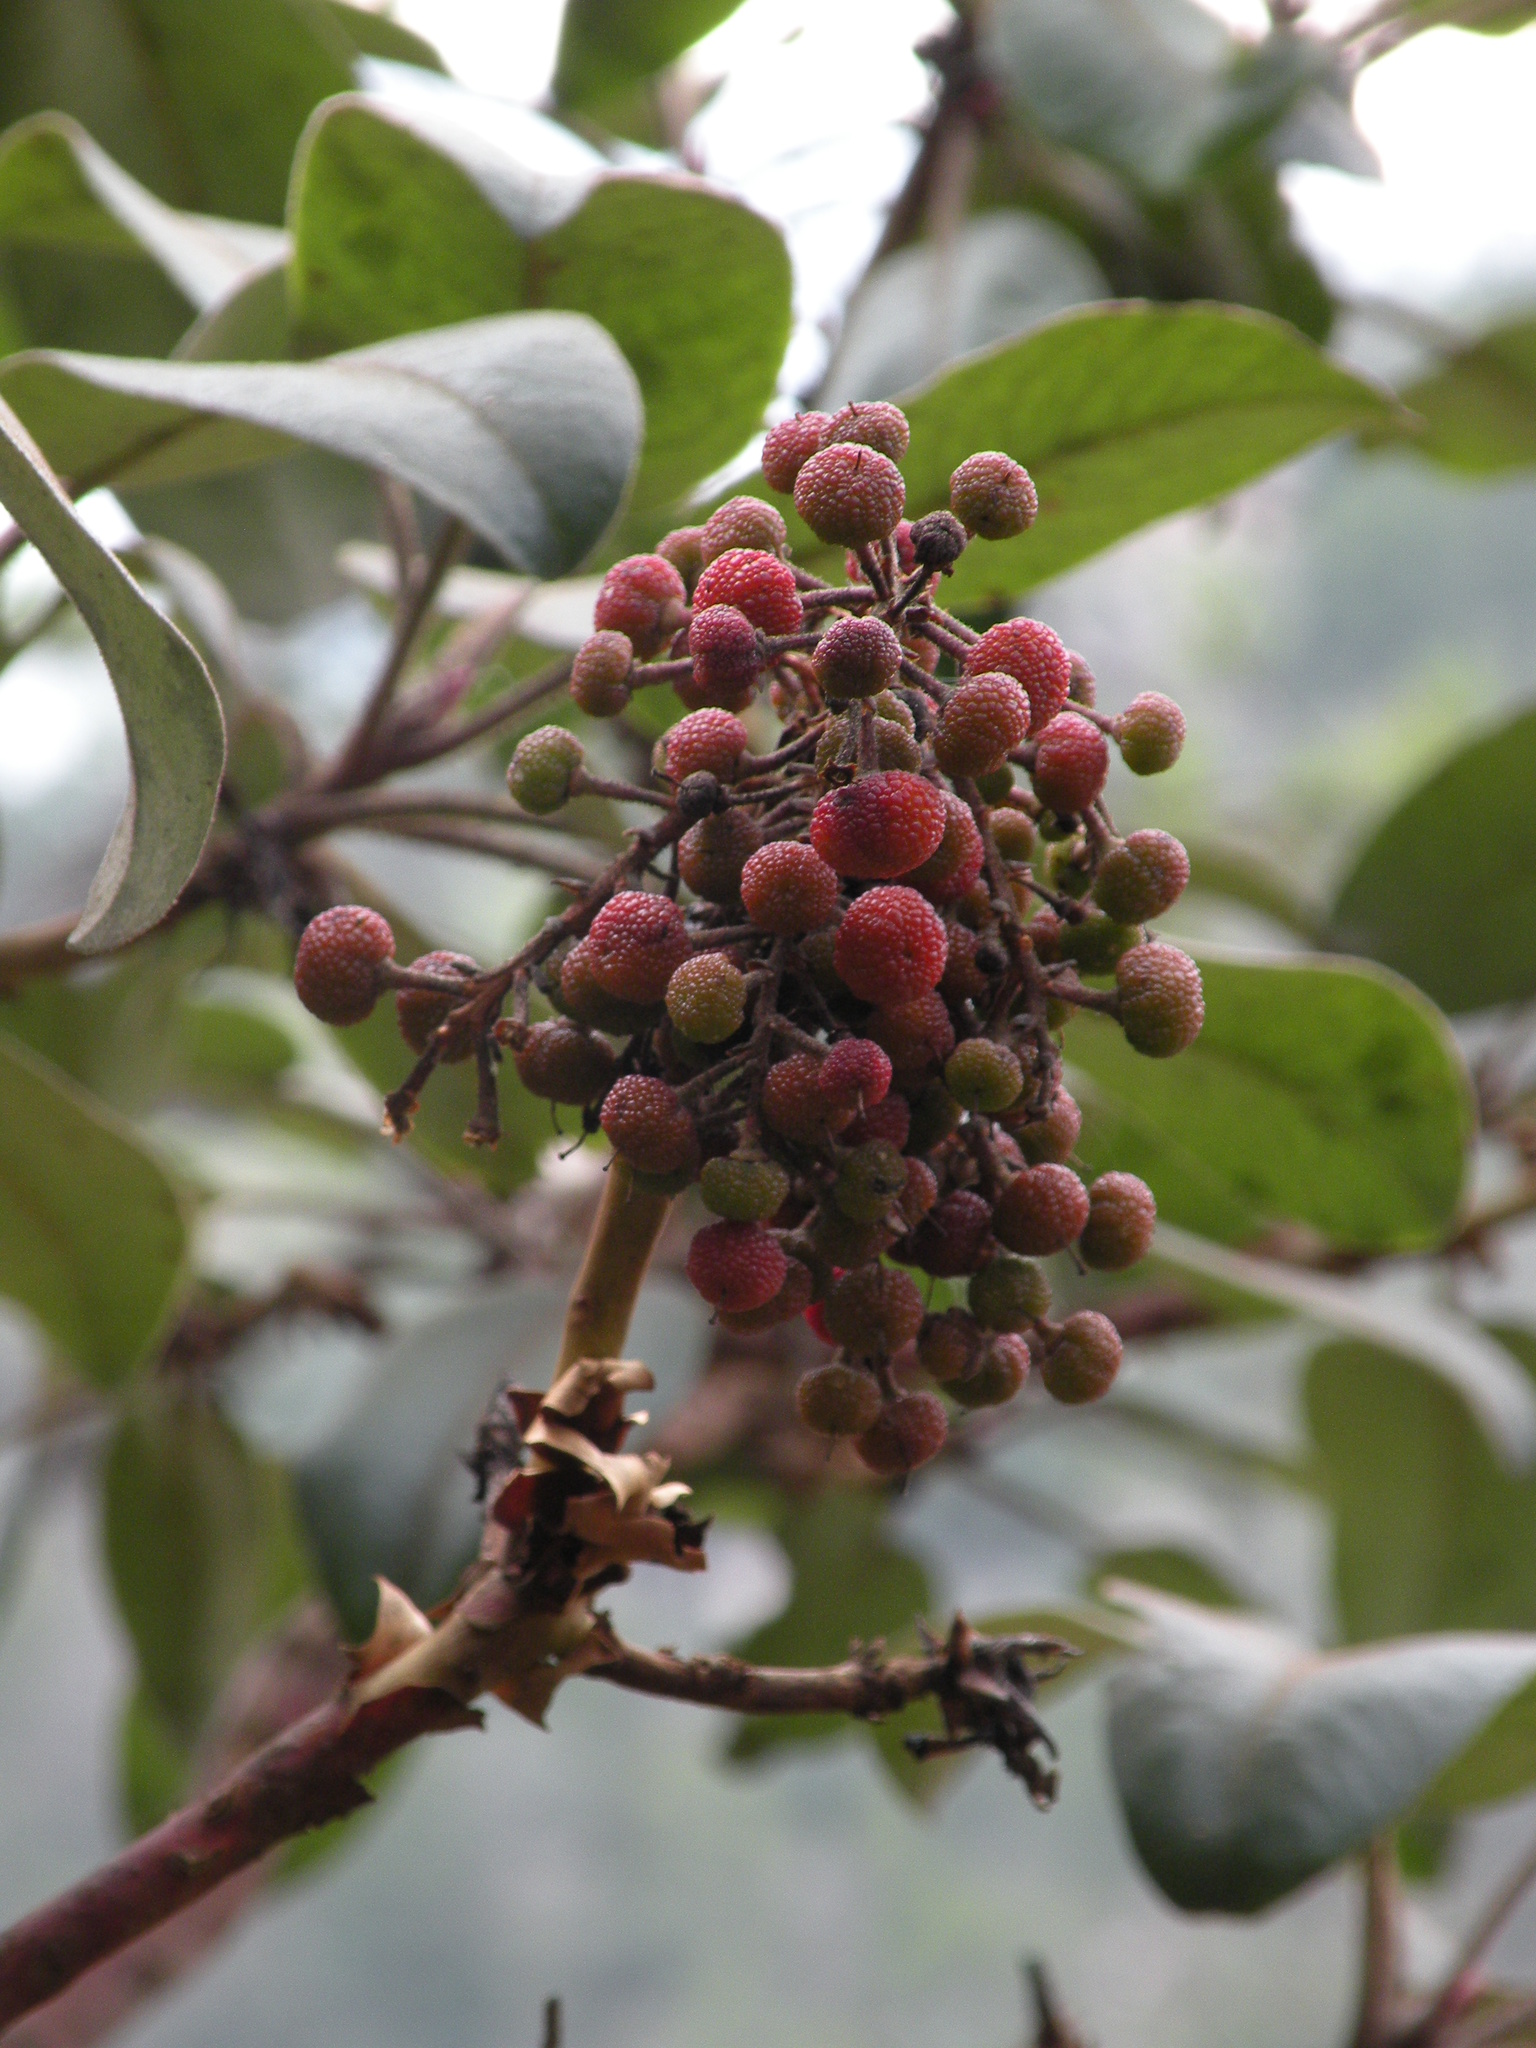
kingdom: Plantae
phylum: Tracheophyta
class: Magnoliopsida
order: Ericales
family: Ericaceae
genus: Arbutus
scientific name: Arbutus bicolor
